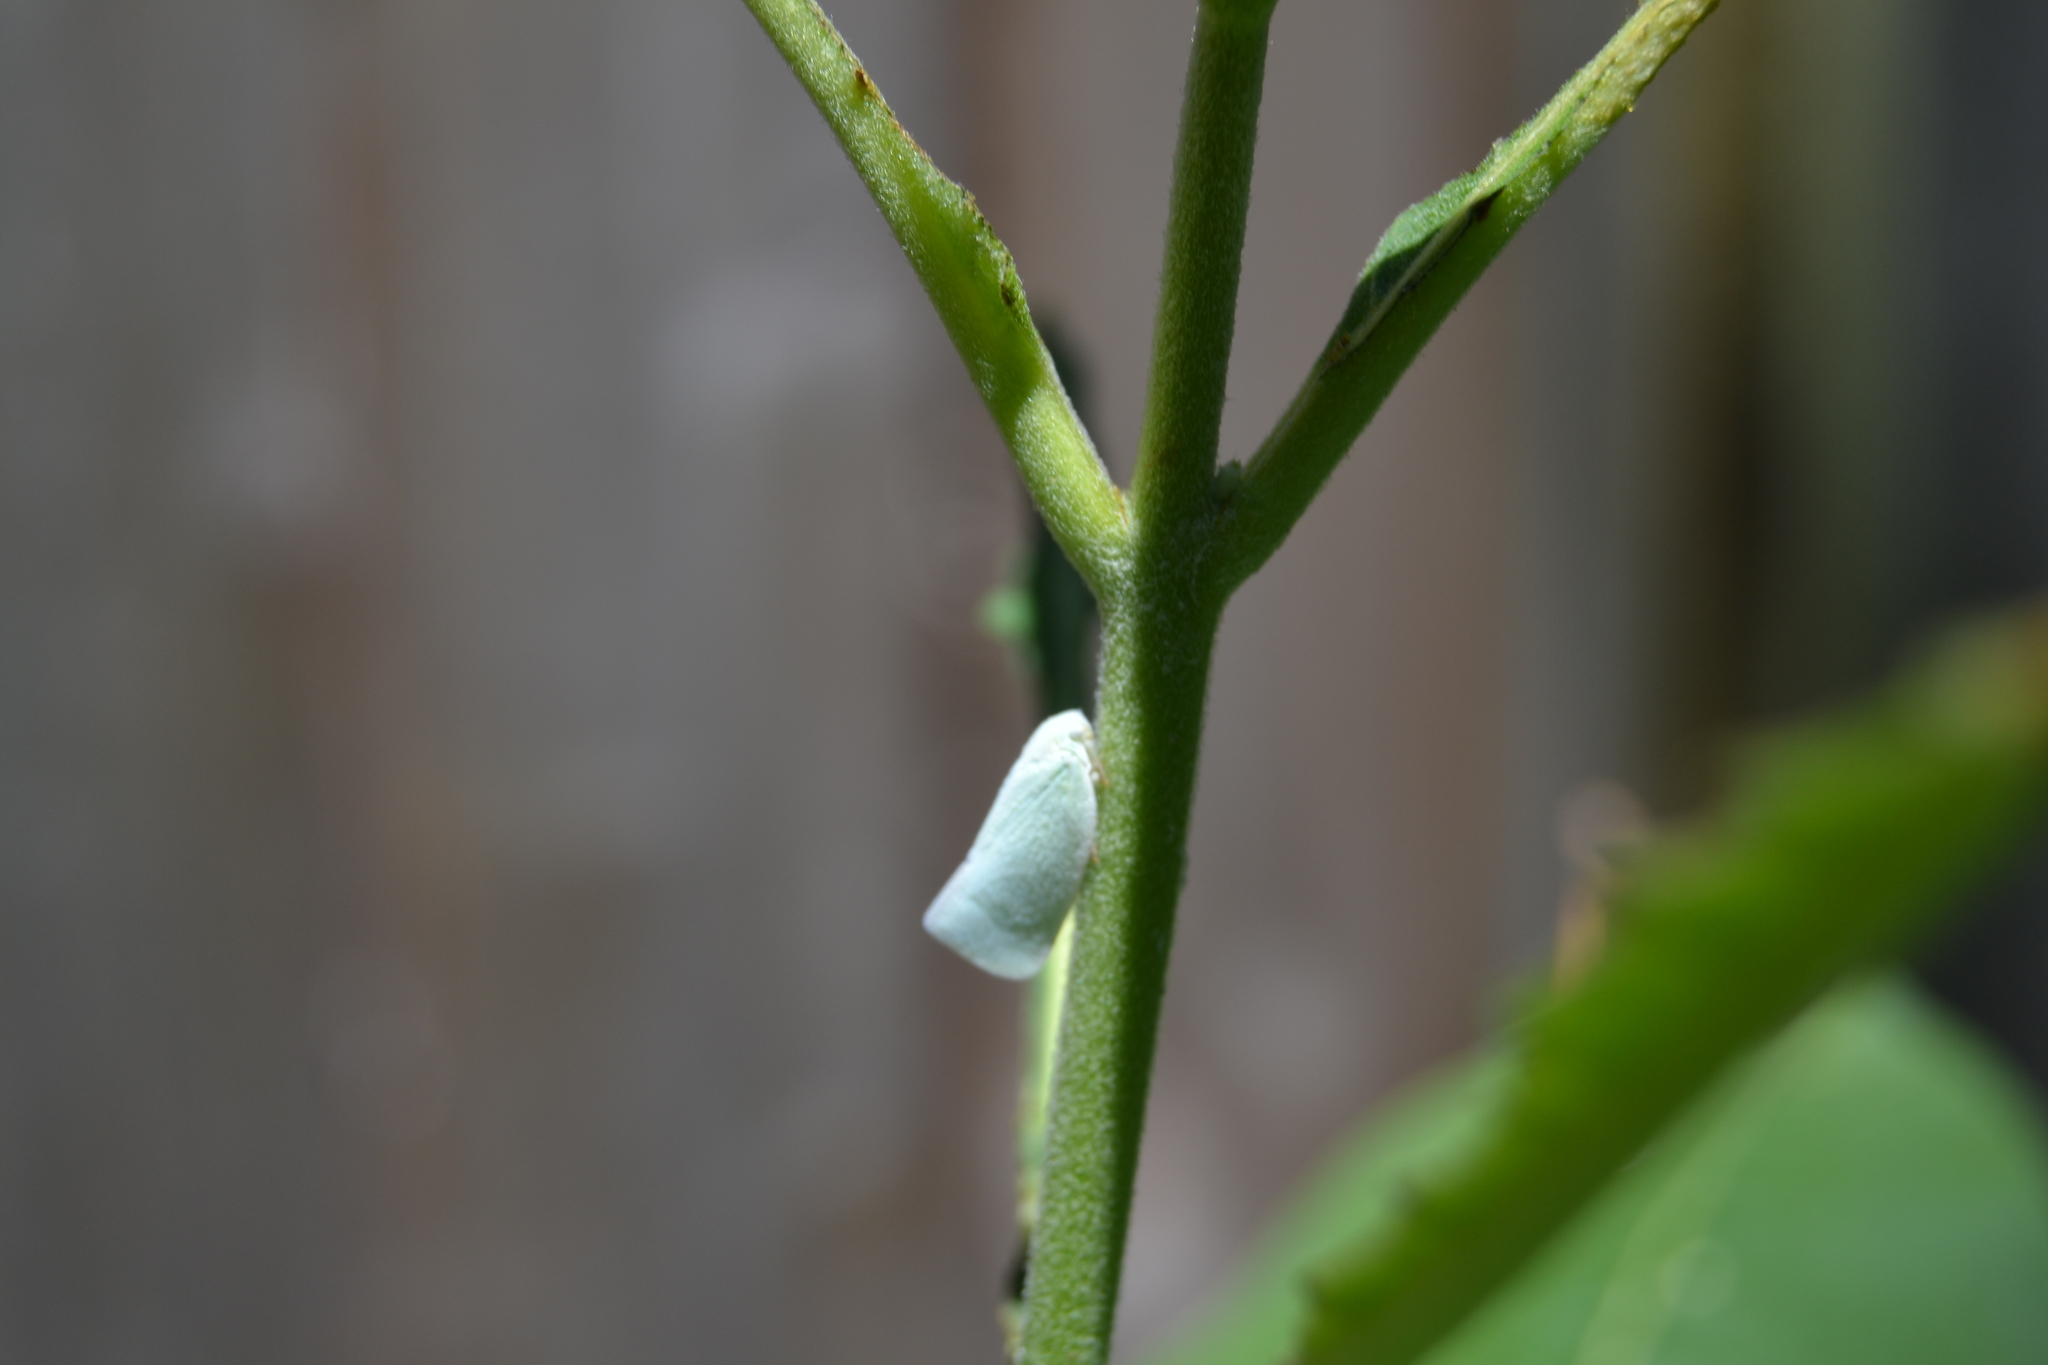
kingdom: Animalia
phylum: Arthropoda
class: Insecta
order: Hemiptera
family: Flatidae
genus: Flatormenis
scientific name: Flatormenis proxima
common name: Northern flatid planthopper
